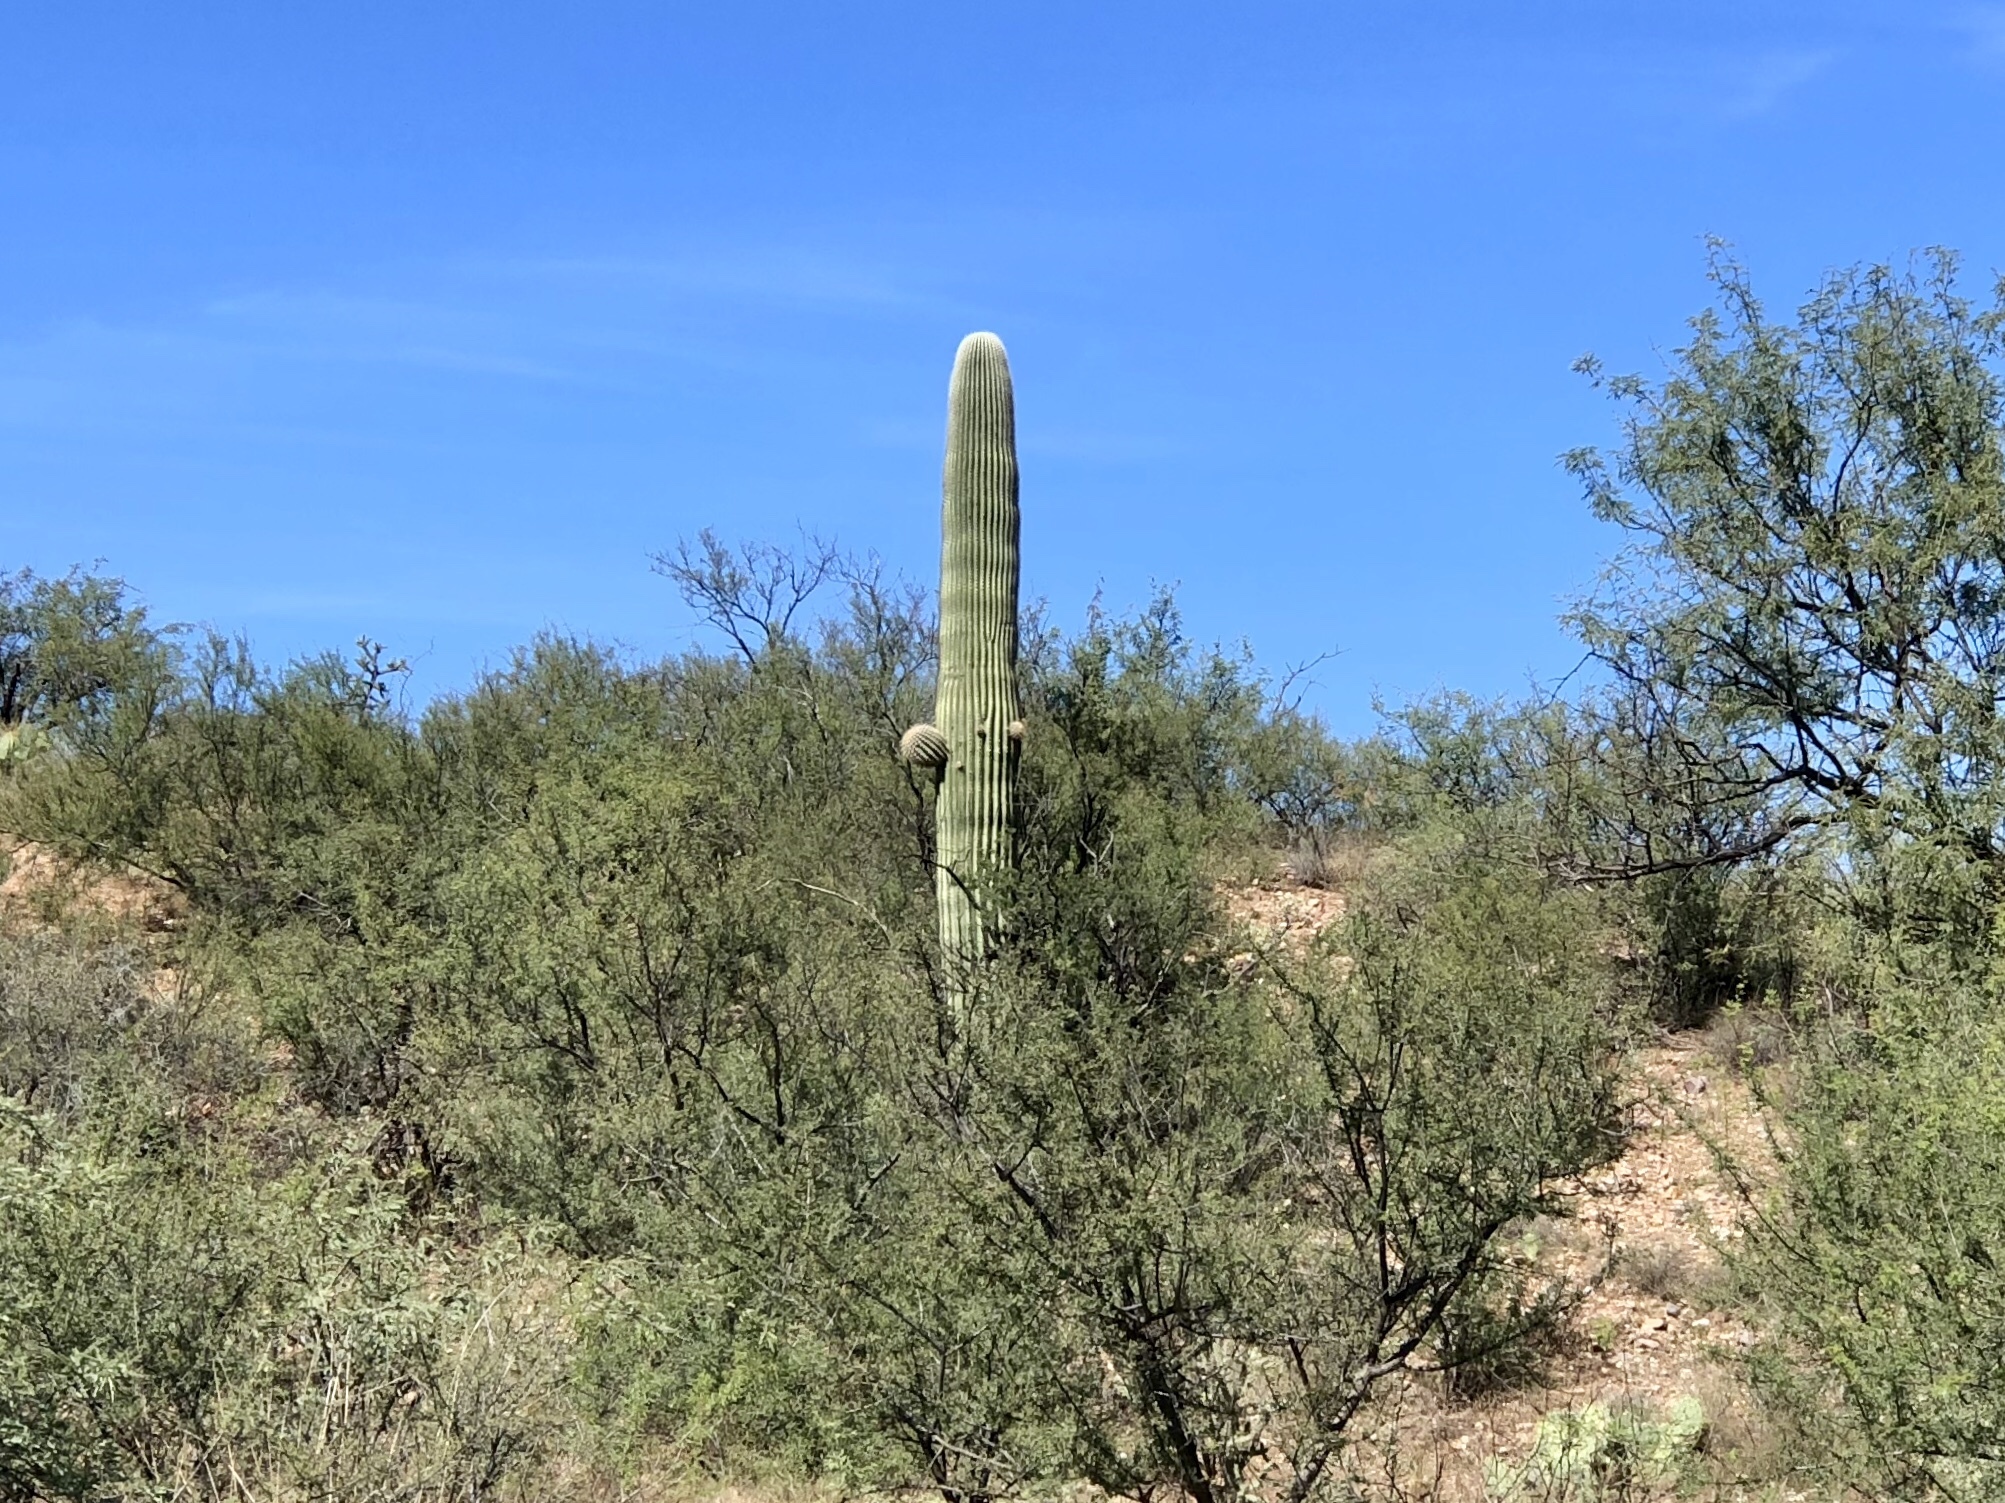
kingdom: Plantae
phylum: Tracheophyta
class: Magnoliopsida
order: Caryophyllales
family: Cactaceae
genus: Carnegiea
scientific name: Carnegiea gigantea
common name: Saguaro
